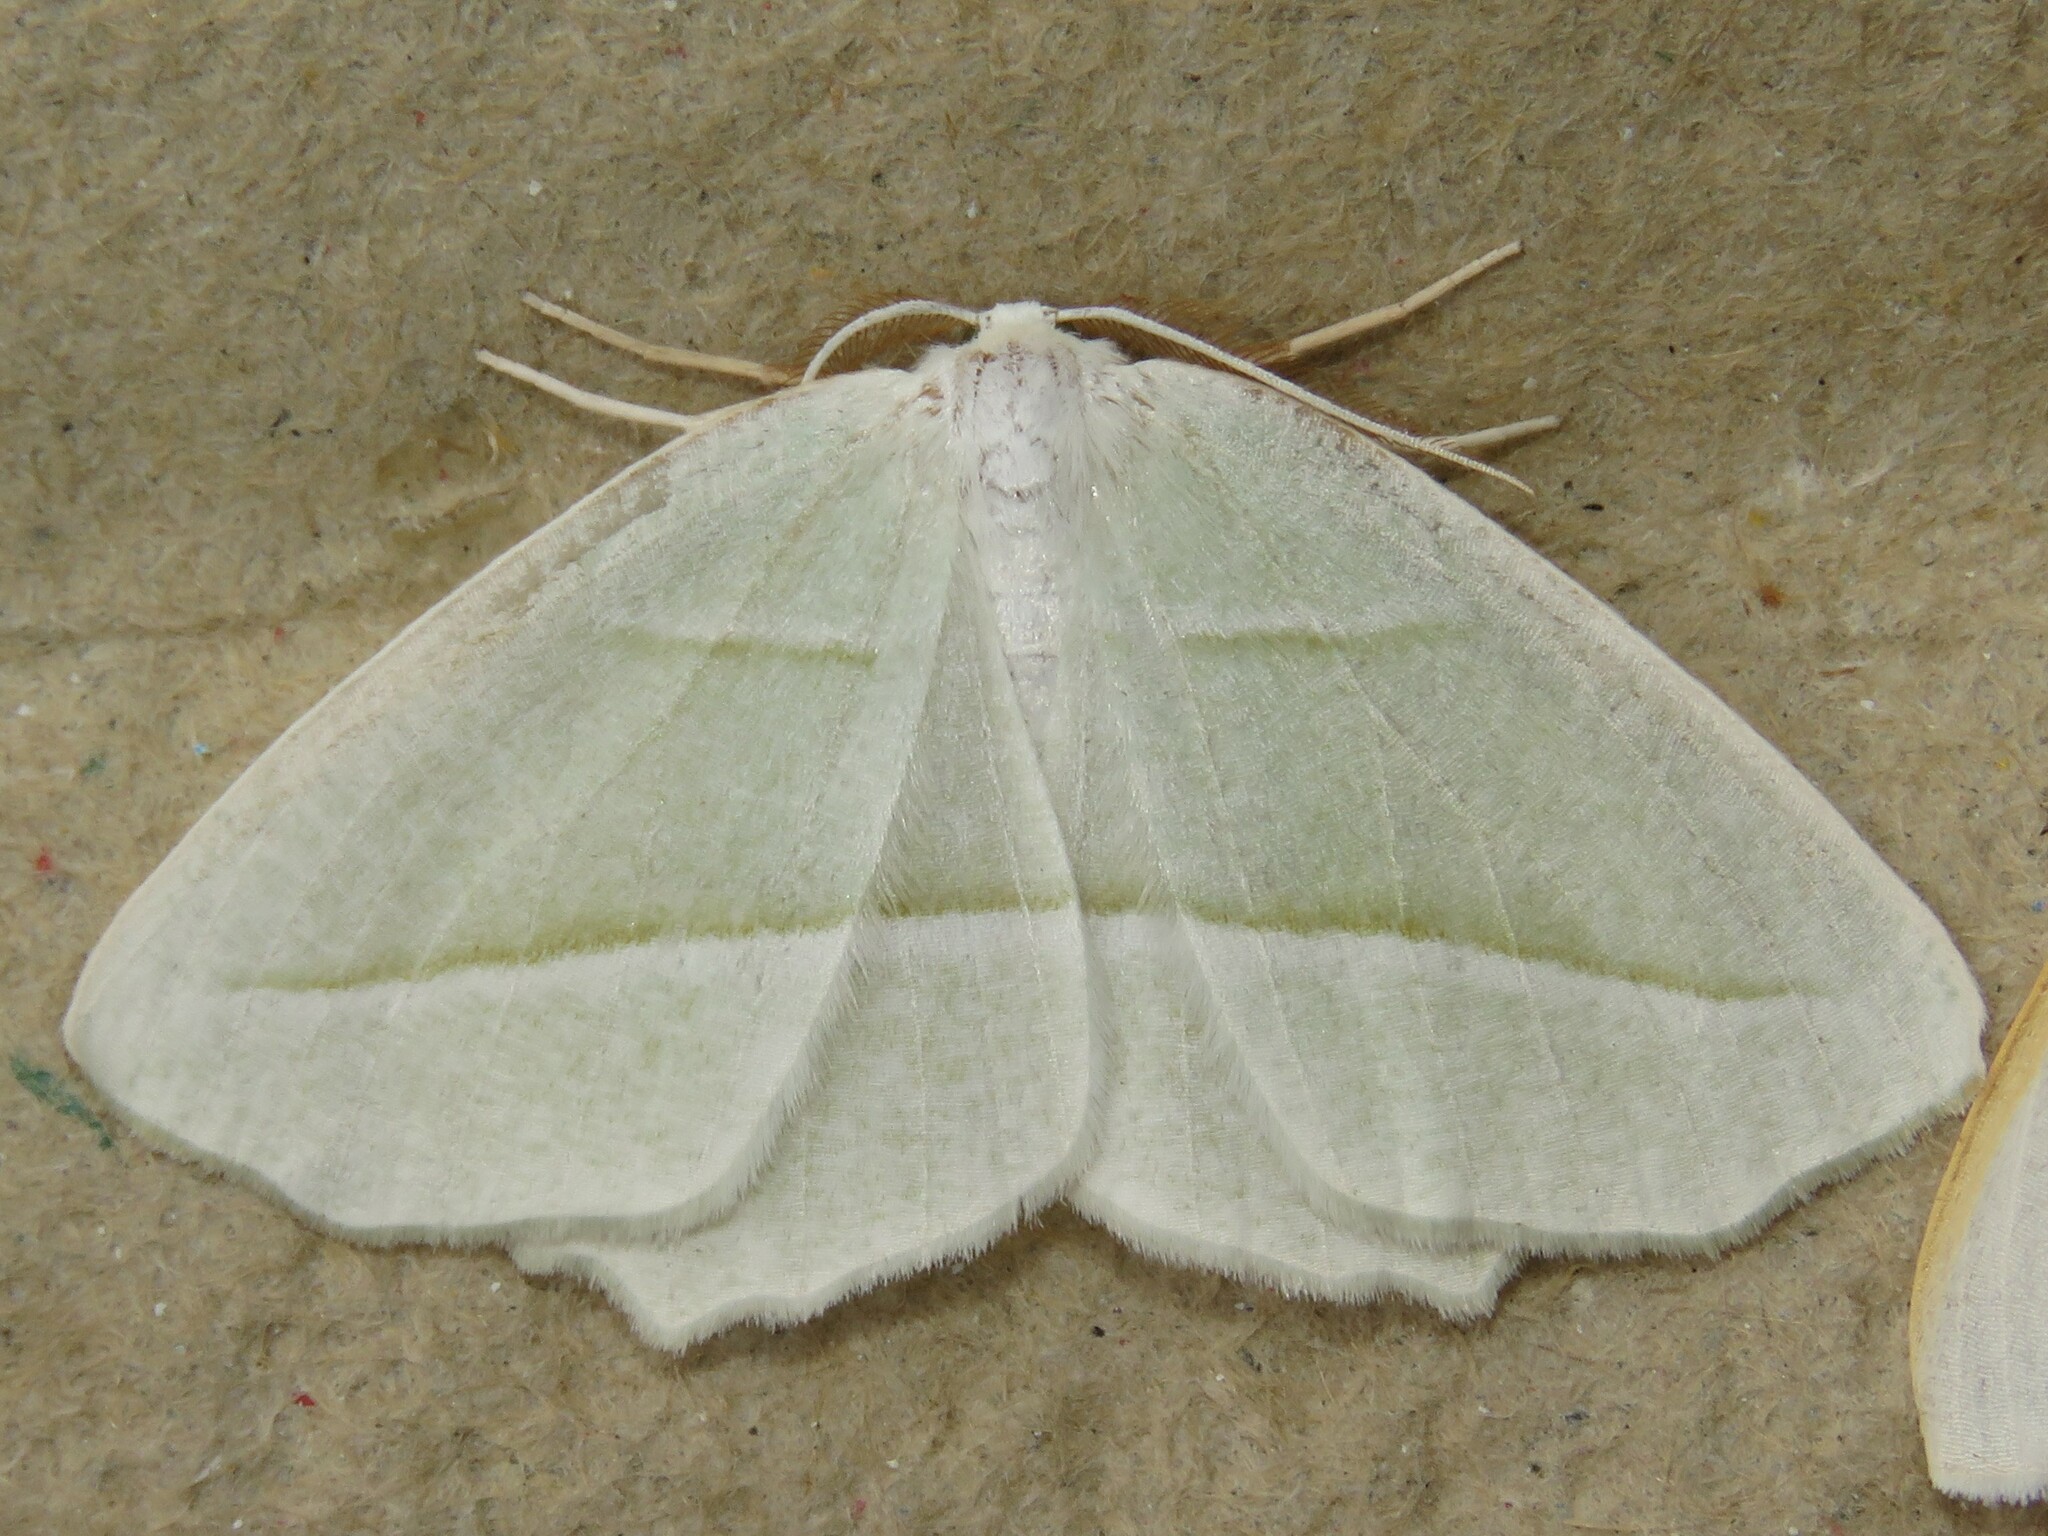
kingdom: Animalia
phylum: Arthropoda
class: Insecta
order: Lepidoptera
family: Geometridae
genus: Campaea
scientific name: Campaea perlata
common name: Fringed looper
